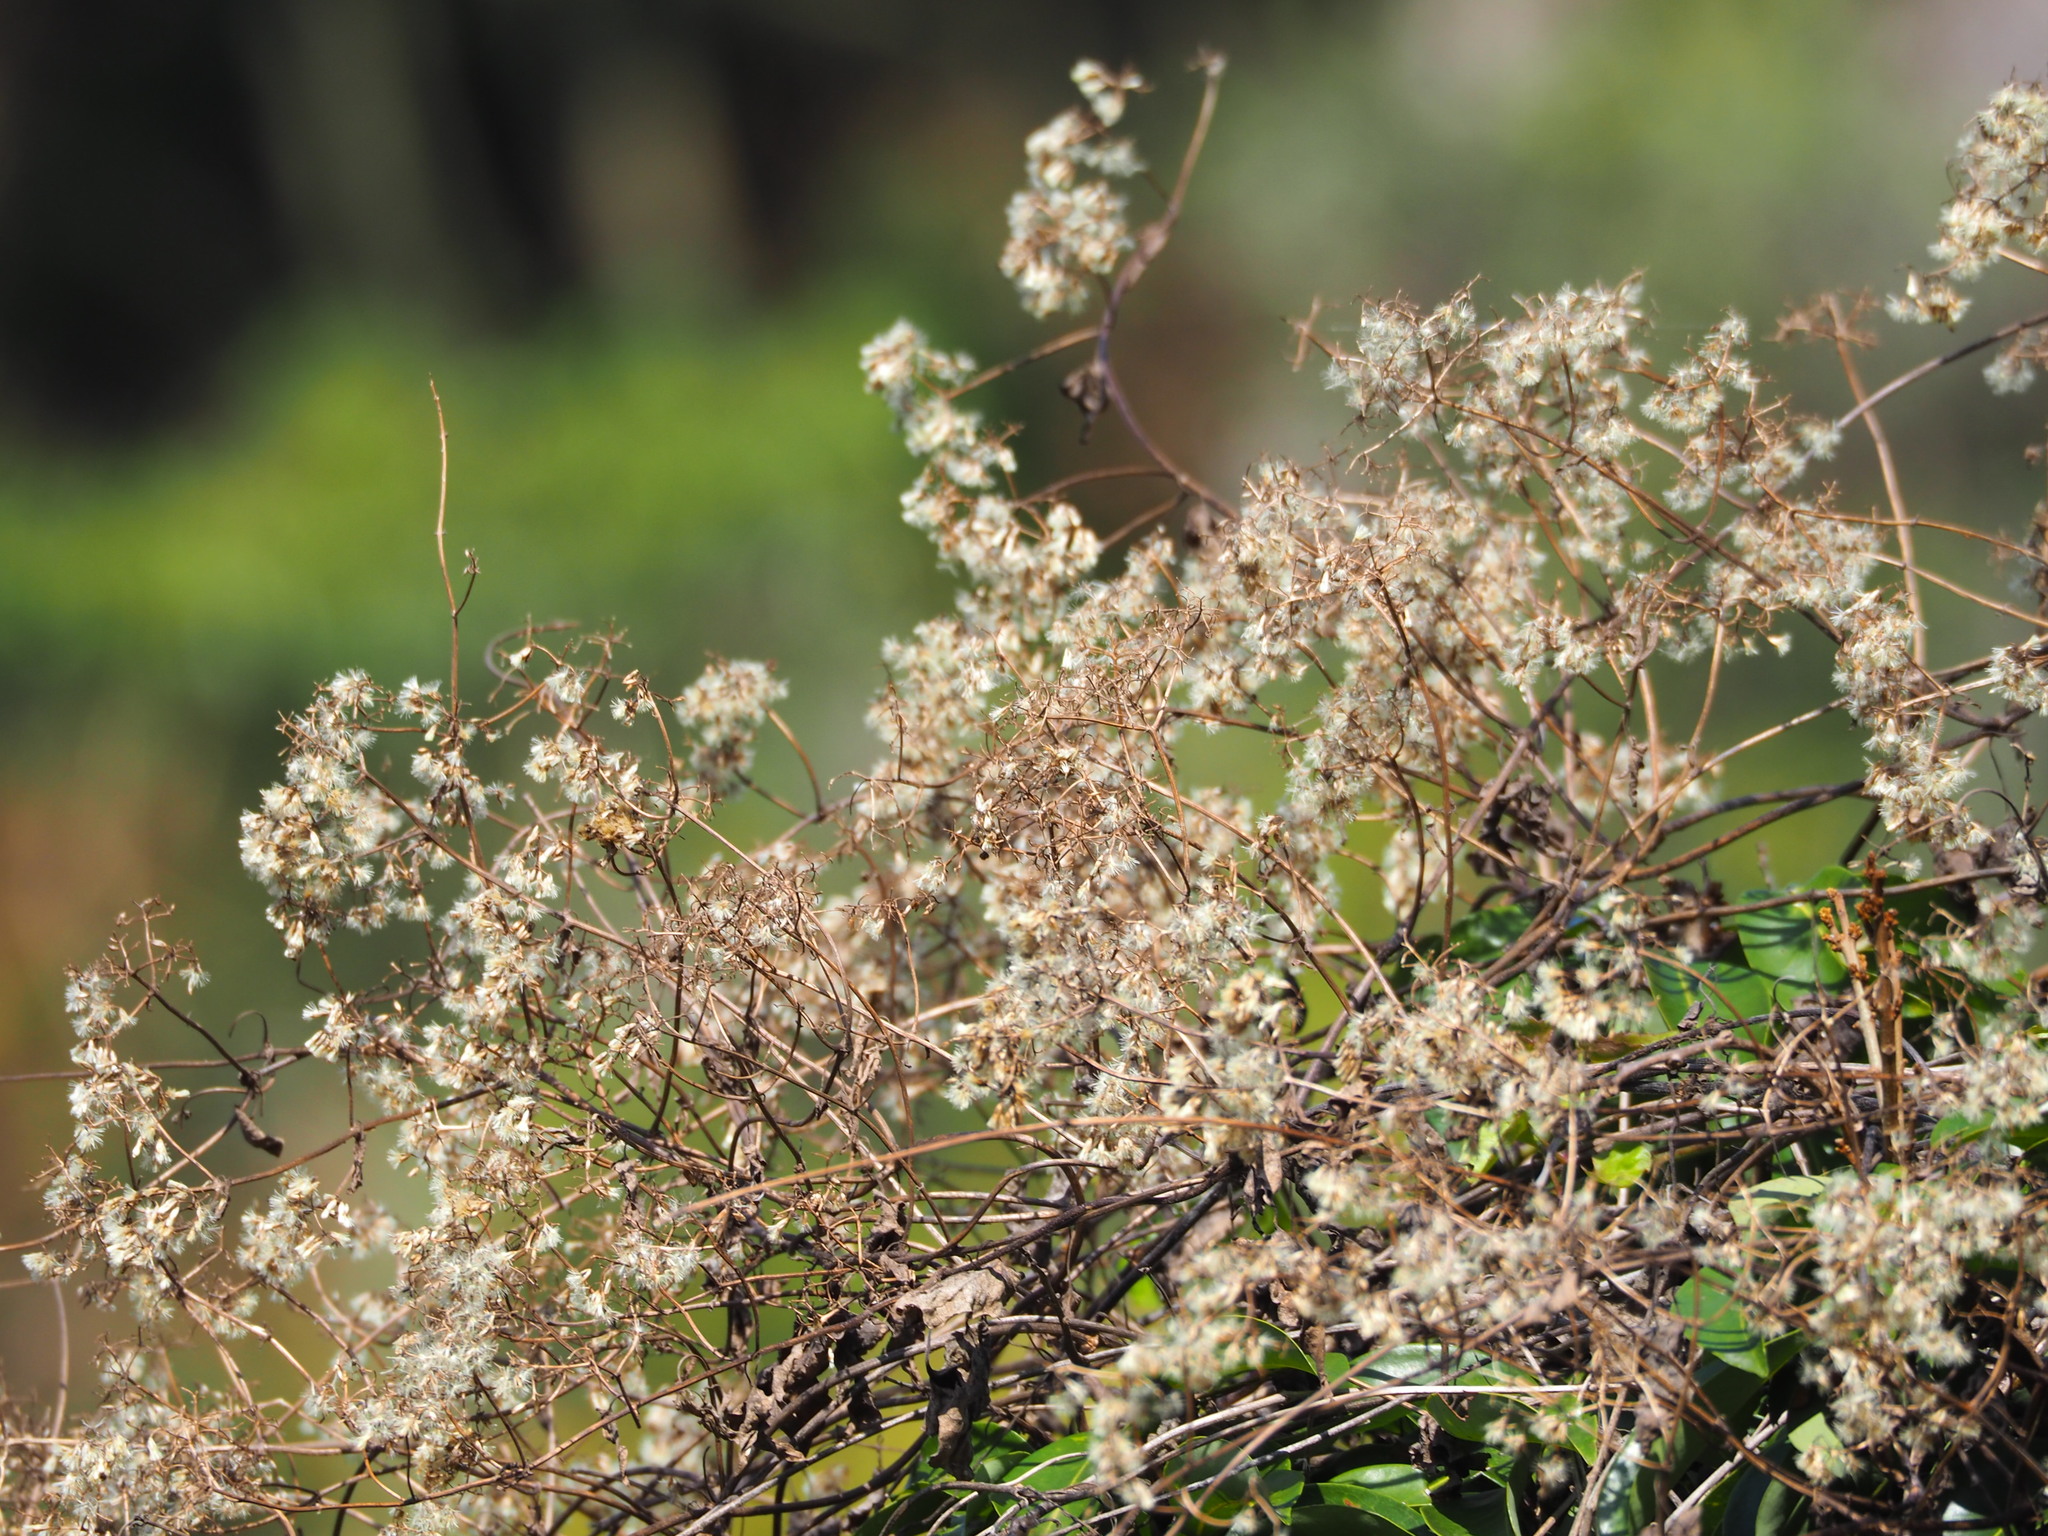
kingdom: Plantae
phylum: Tracheophyta
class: Magnoliopsida
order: Asterales
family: Asteraceae
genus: Mikania
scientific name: Mikania micrantha
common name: Mile-a-minute
